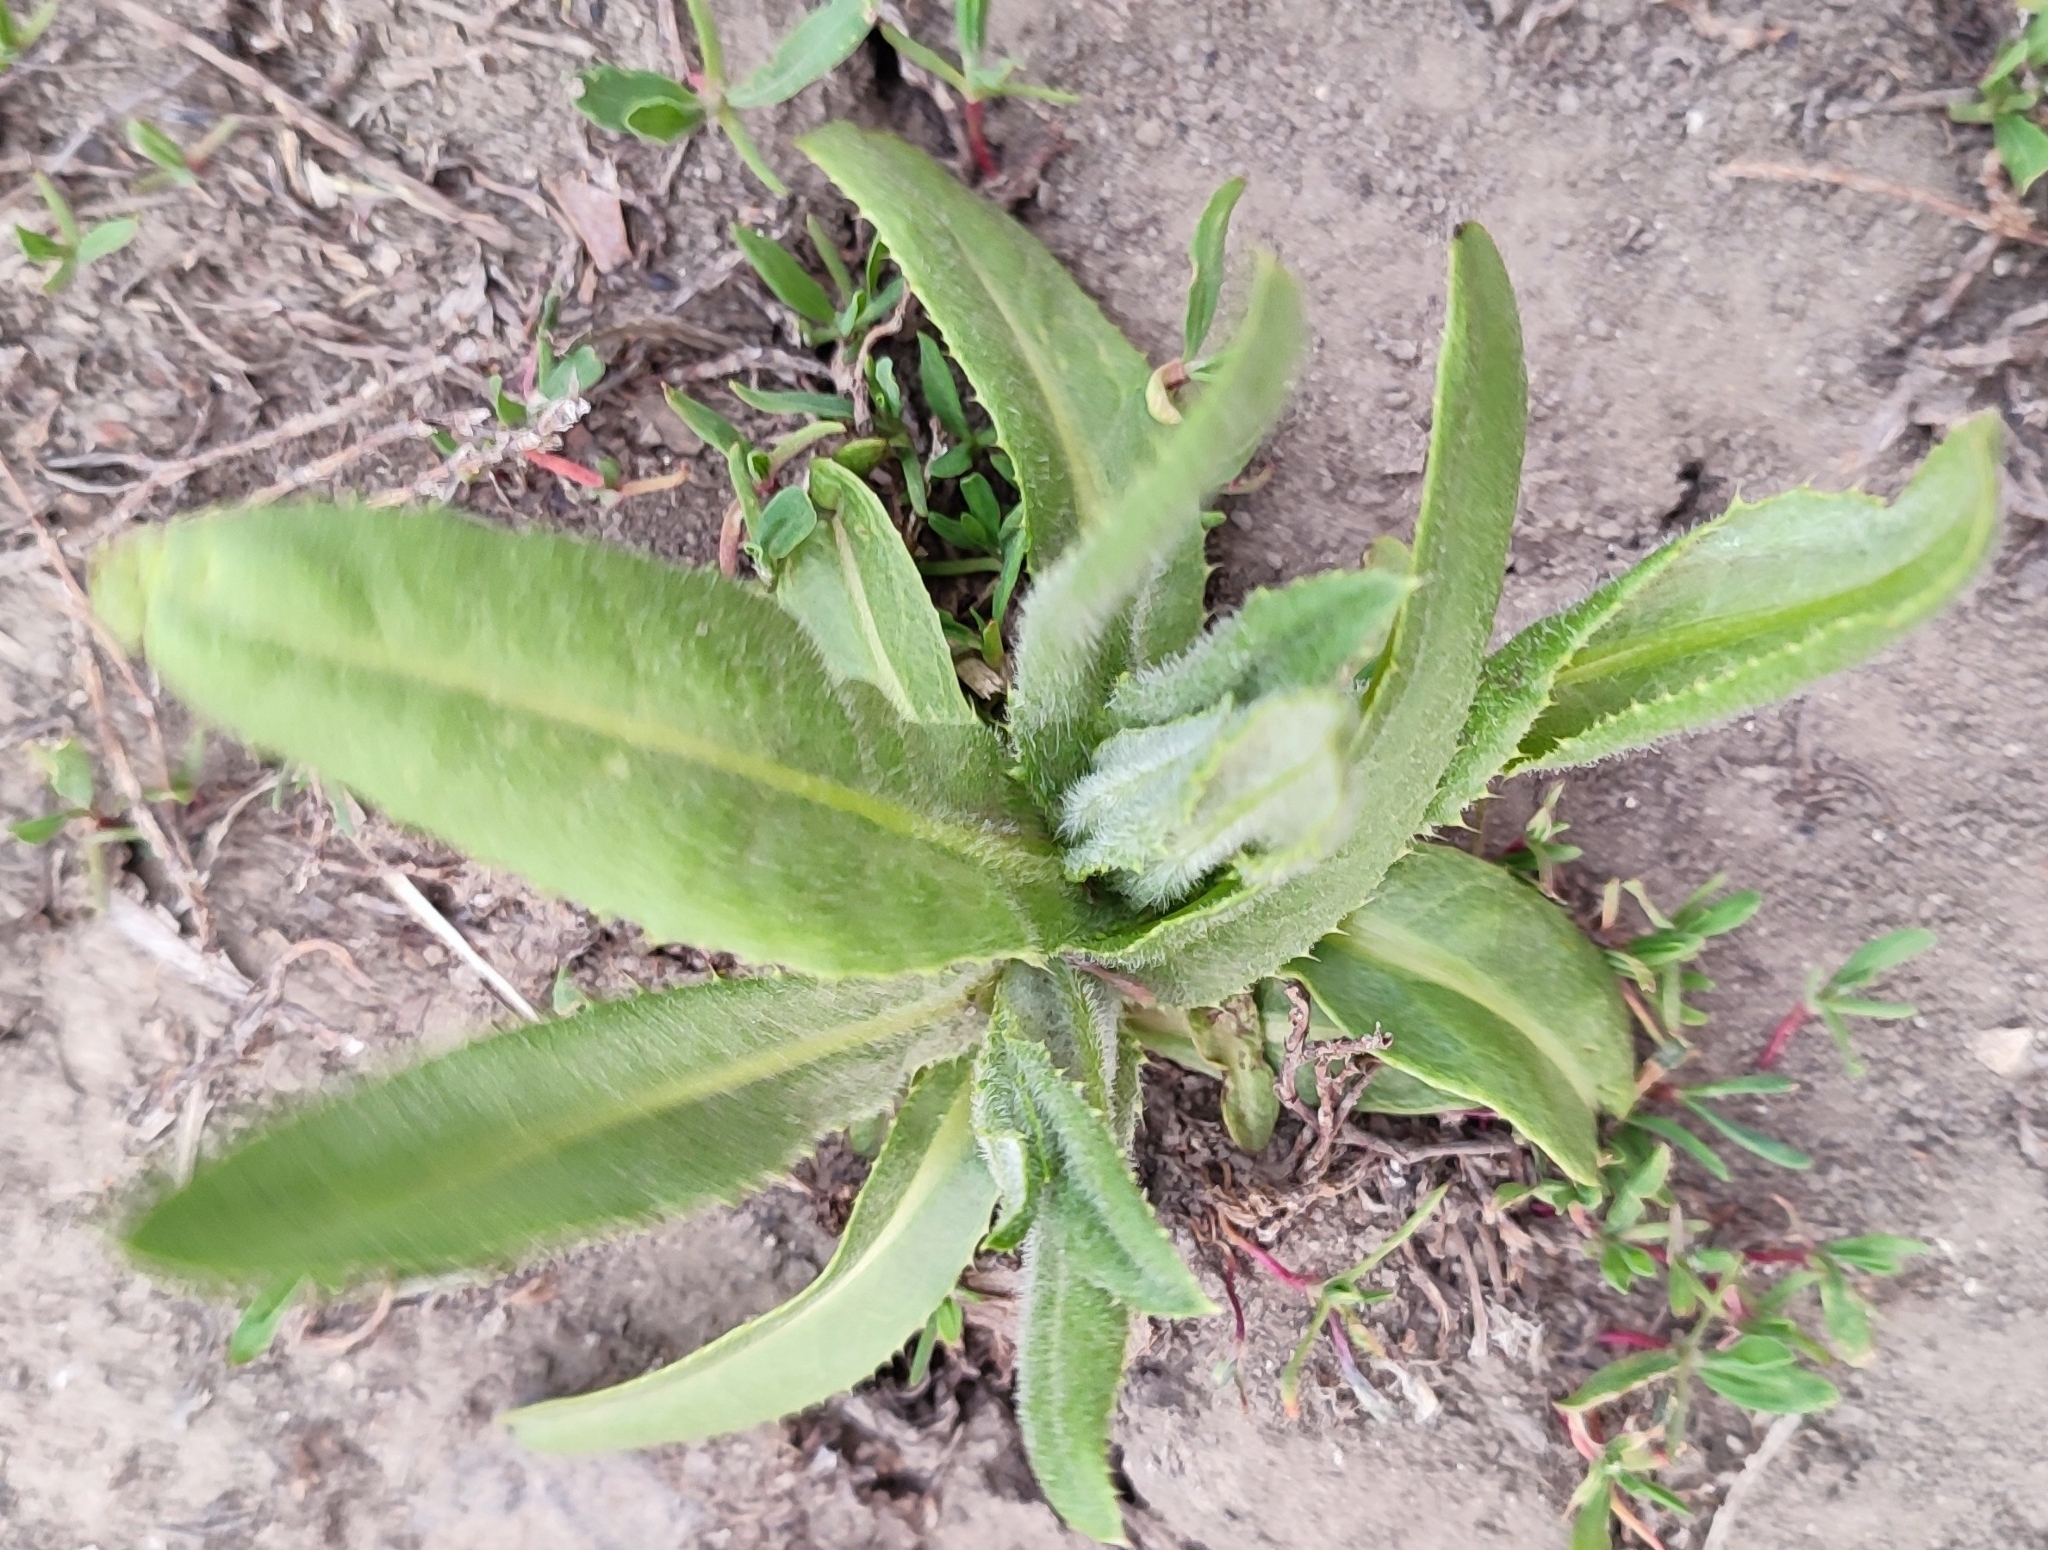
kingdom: Plantae
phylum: Tracheophyta
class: Magnoliopsida
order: Asterales
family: Asteraceae
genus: Cirsium
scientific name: Cirsium arvense
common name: Creeping thistle
